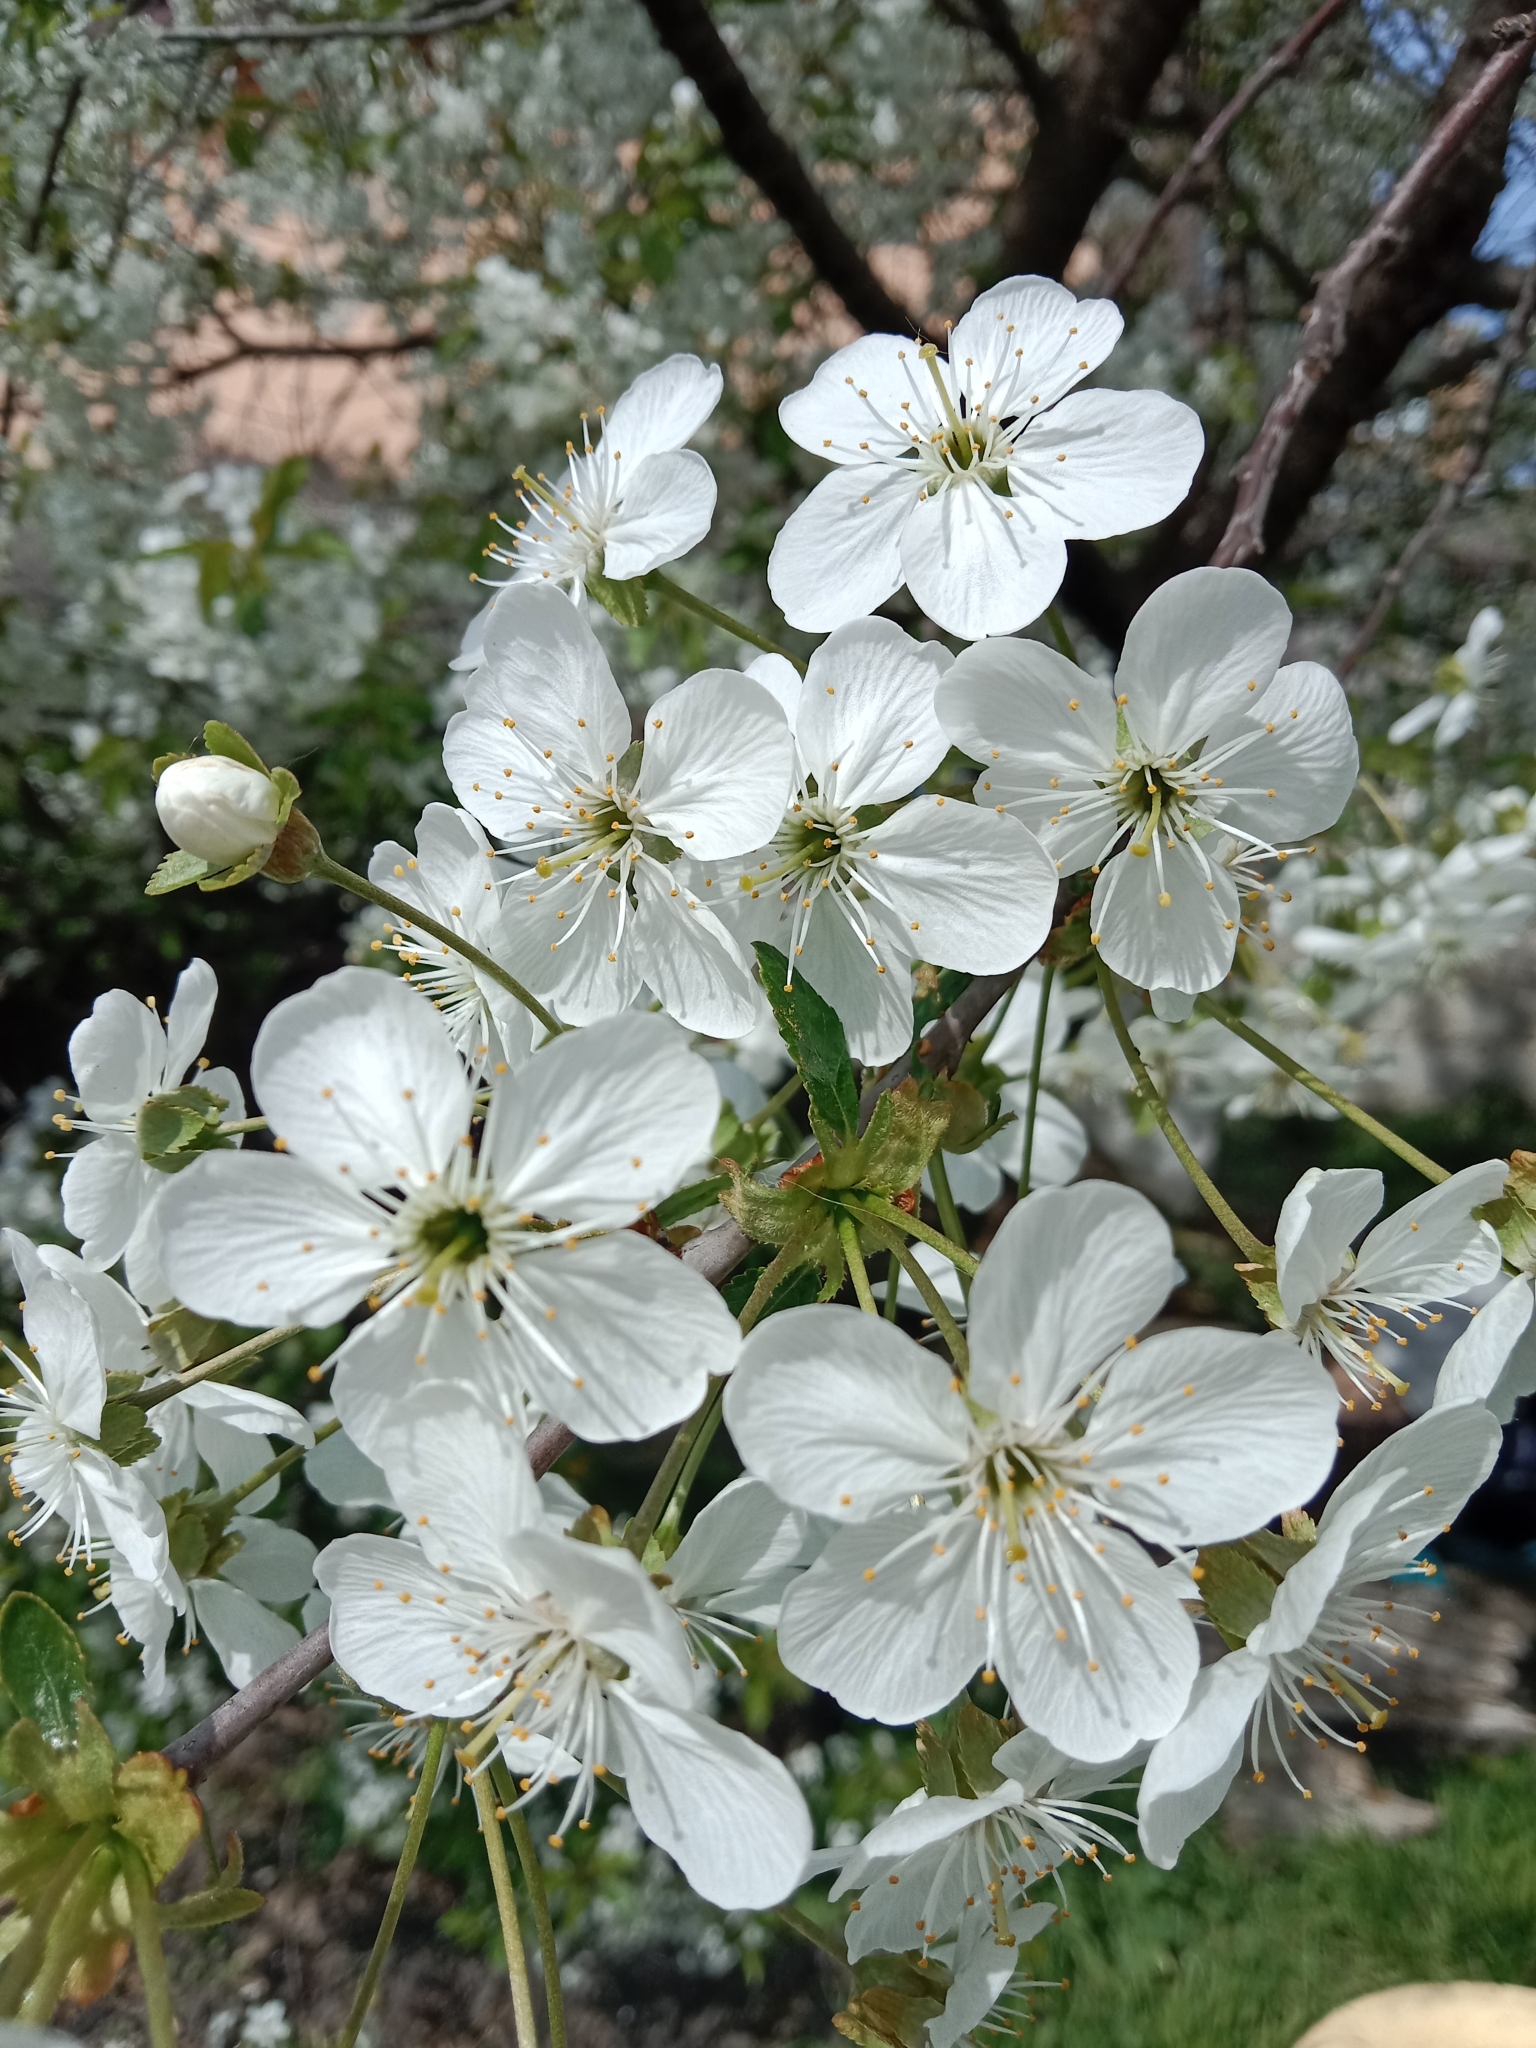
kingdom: Plantae
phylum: Tracheophyta
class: Magnoliopsida
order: Rosales
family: Rosaceae
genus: Prunus
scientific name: Prunus cerasus
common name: Morello cherry
